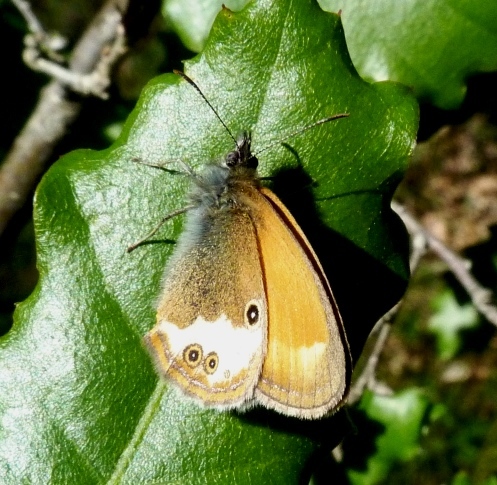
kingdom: Animalia
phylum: Arthropoda
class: Insecta
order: Lepidoptera
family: Nymphalidae
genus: Coenonympha
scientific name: Coenonympha arcania
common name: Pearly heath
